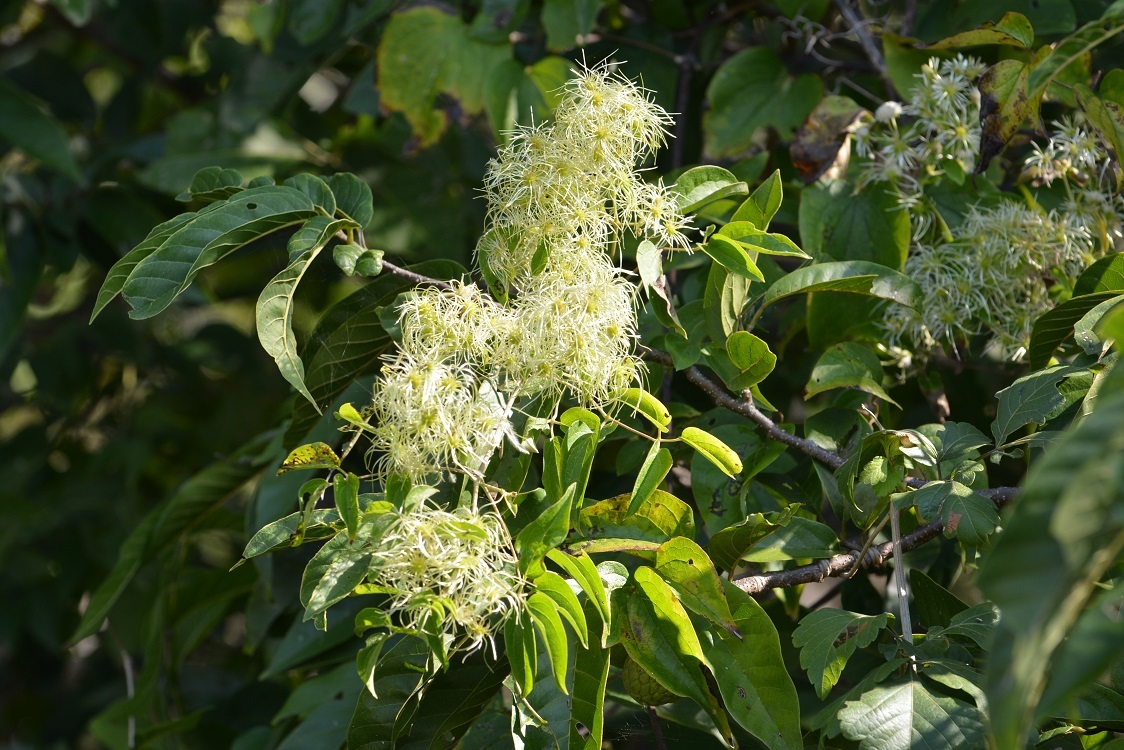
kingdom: Plantae
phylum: Tracheophyta
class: Magnoliopsida
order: Ranunculales
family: Ranunculaceae
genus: Clematis
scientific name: Clematis dioica
